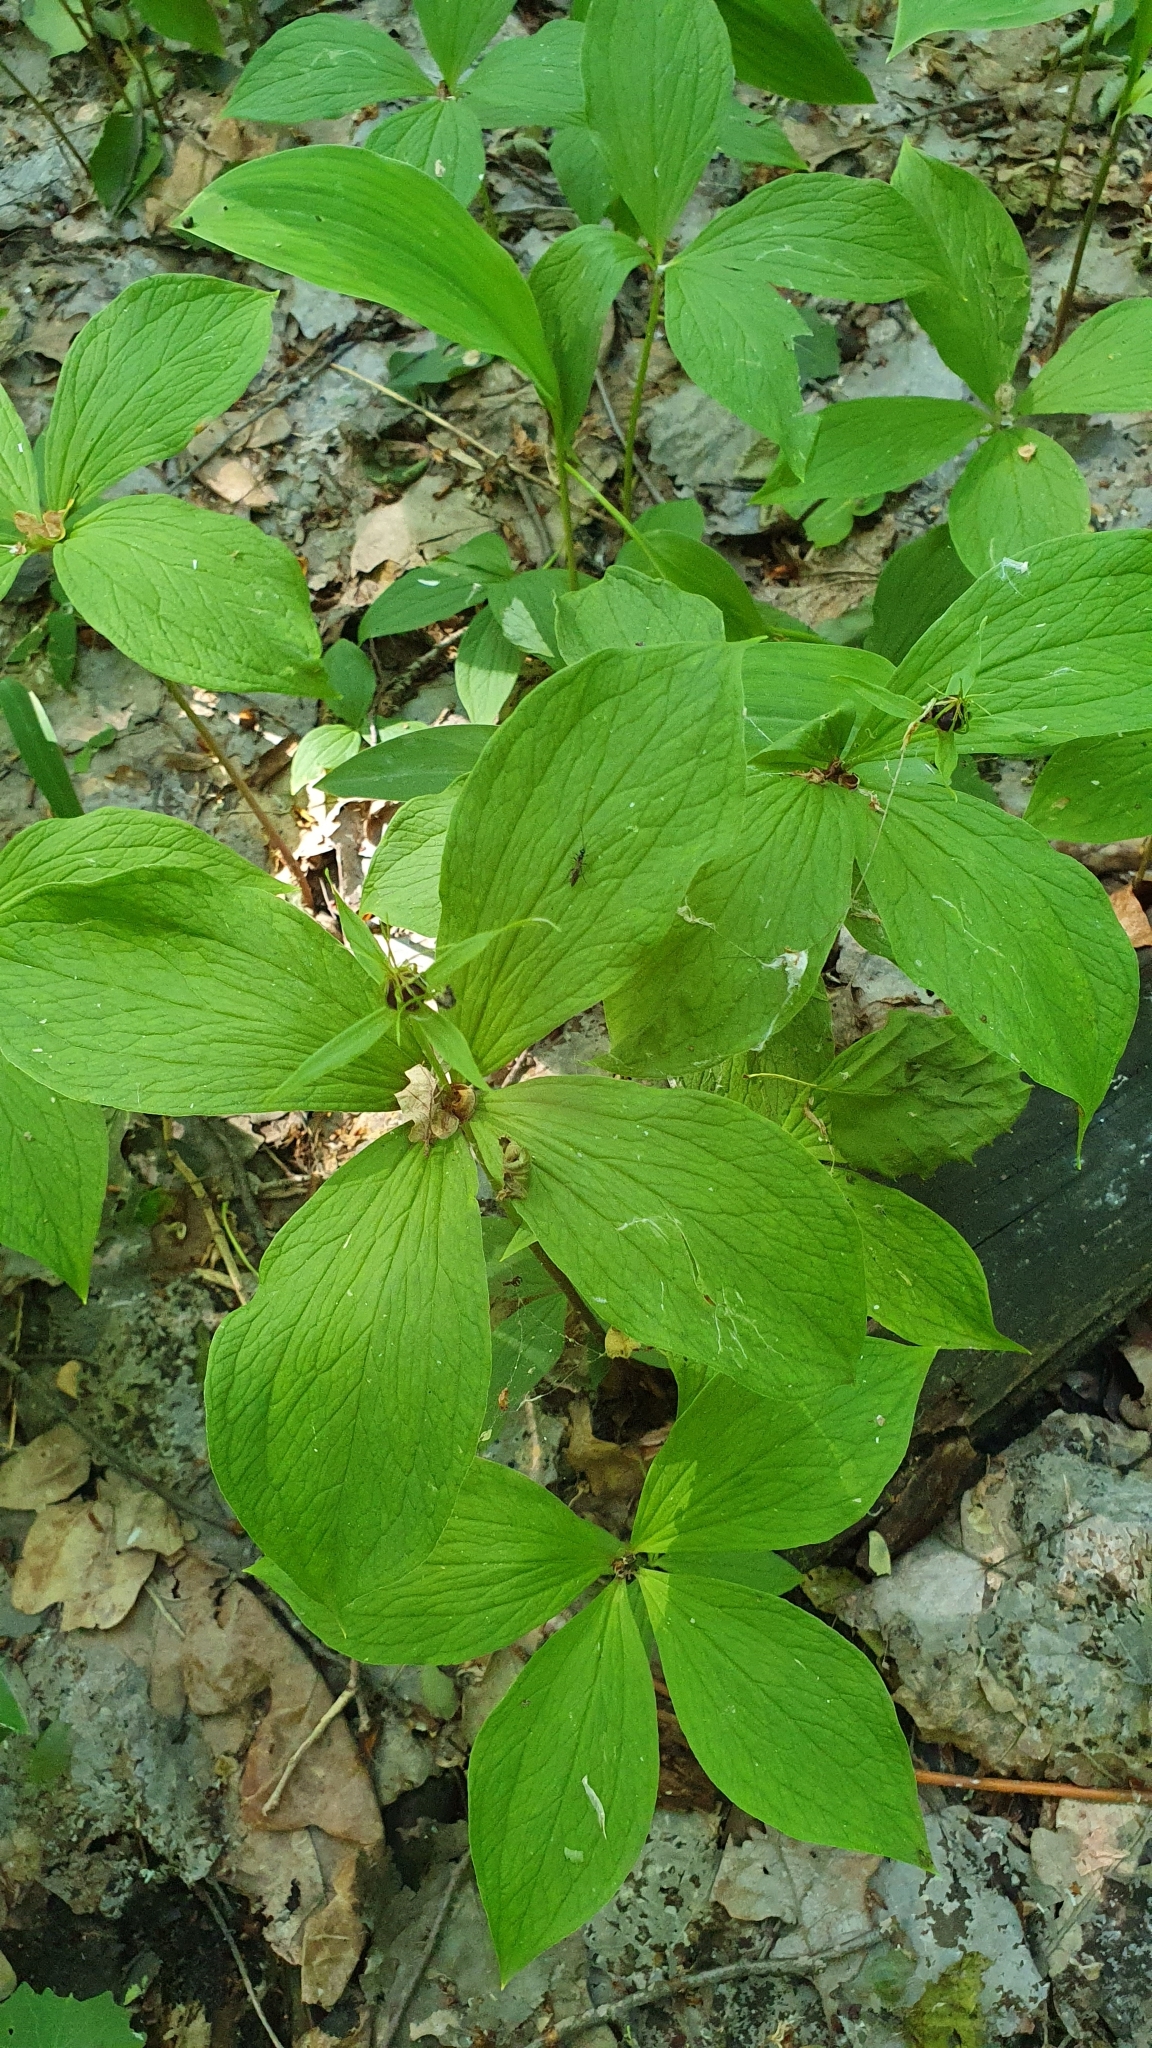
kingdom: Plantae
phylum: Tracheophyta
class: Liliopsida
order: Liliales
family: Melanthiaceae
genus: Paris
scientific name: Paris quadrifolia
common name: Herb-paris
